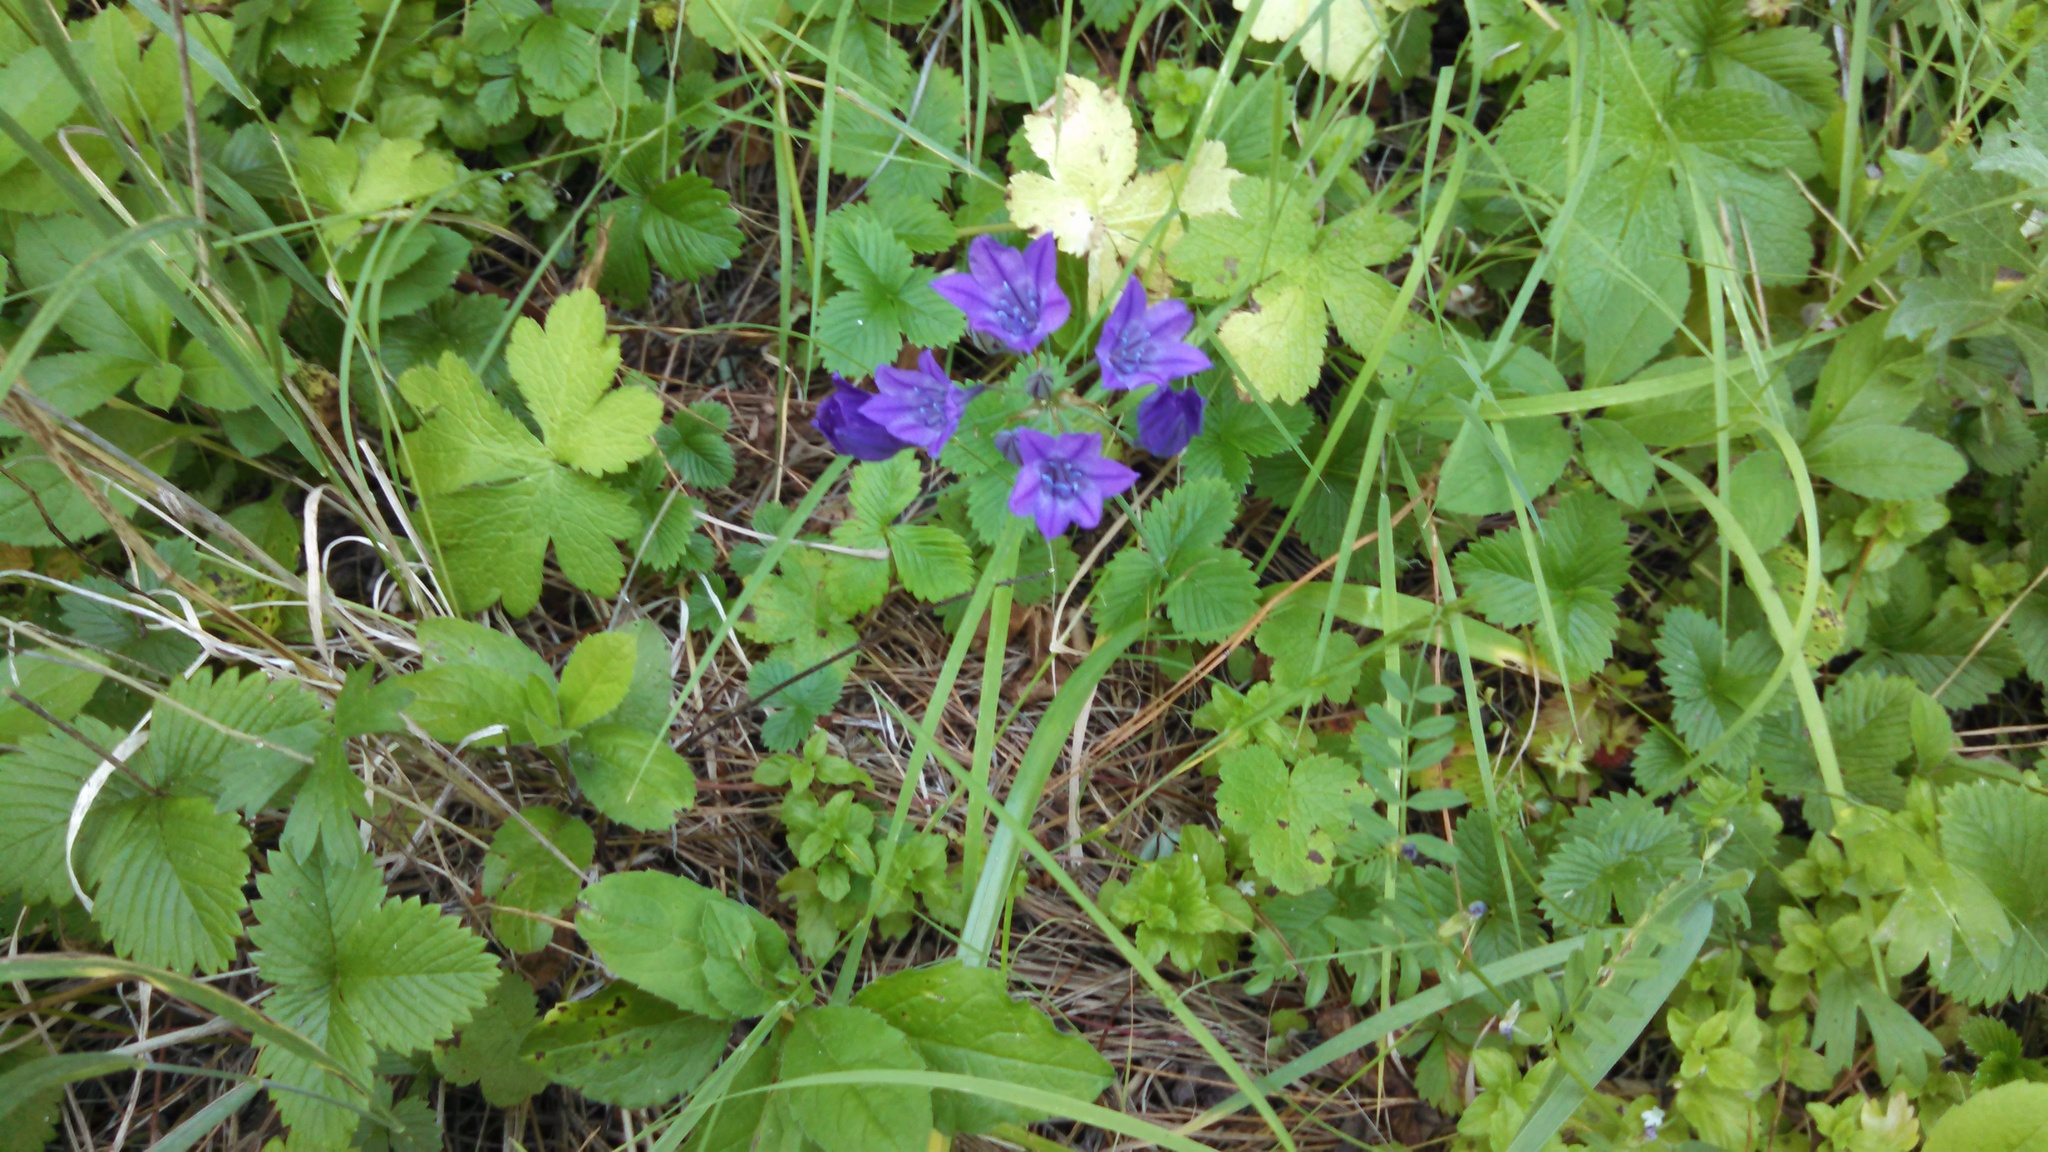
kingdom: Plantae
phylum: Tracheophyta
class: Liliopsida
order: Asparagales
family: Asparagaceae
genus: Triteleia
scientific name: Triteleia laxa
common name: Triplet-lily
